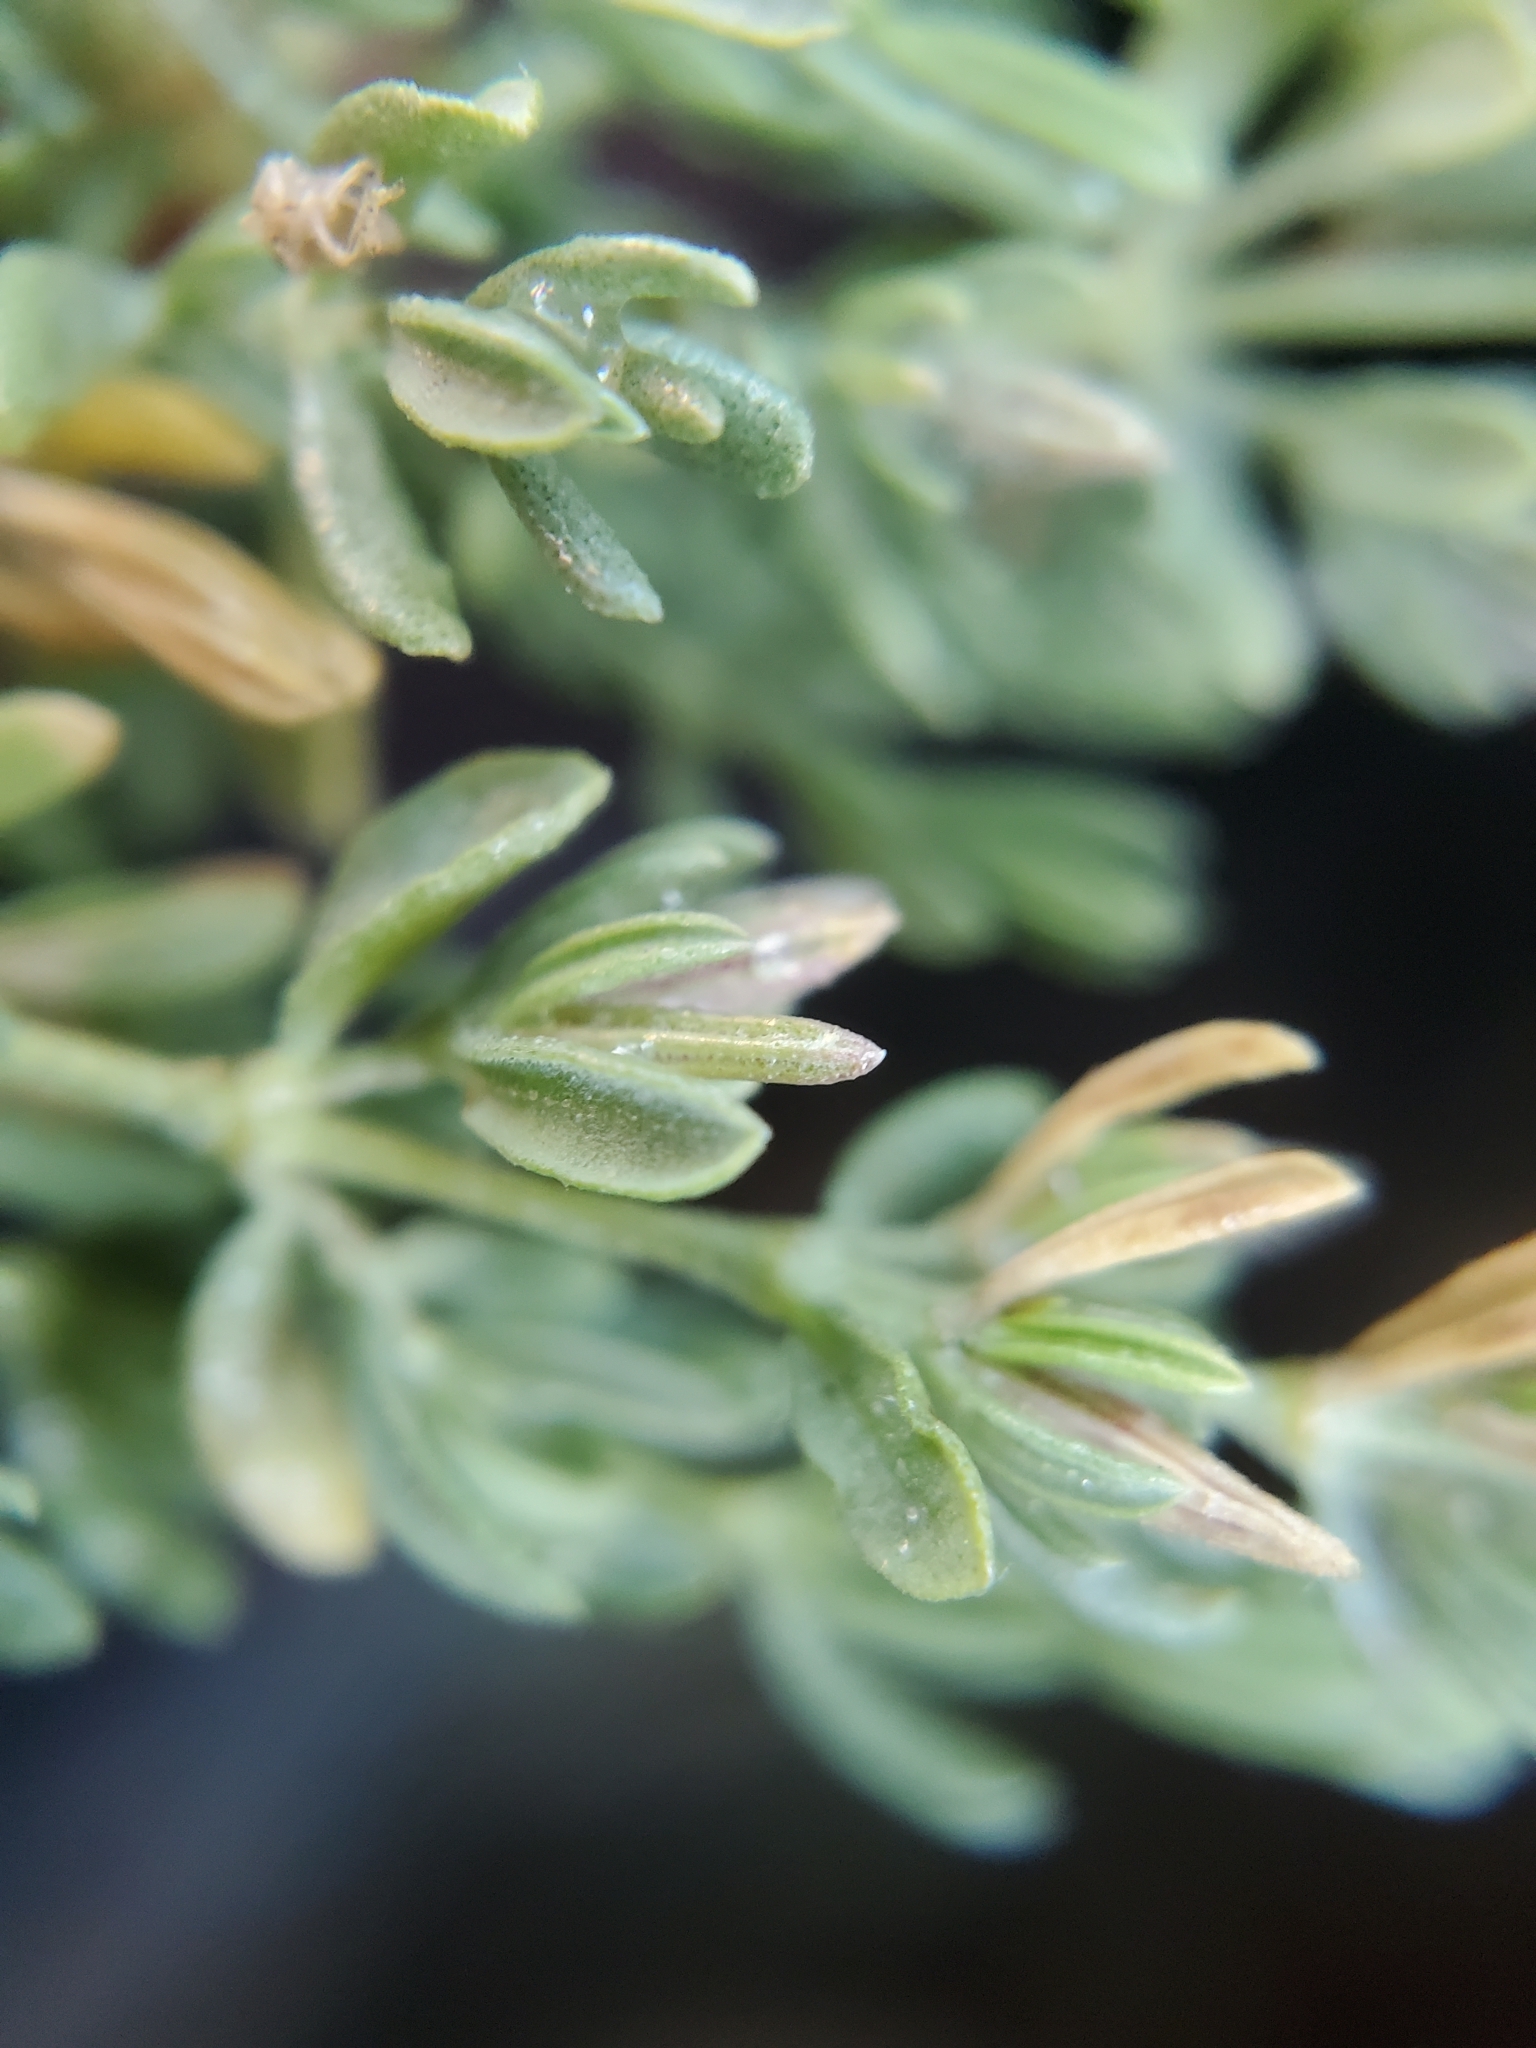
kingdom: Plantae
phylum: Tracheophyta
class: Magnoliopsida
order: Caryophyllales
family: Frankeniaceae
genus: Frankenia
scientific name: Frankenia salina
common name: Alkali seaheath
